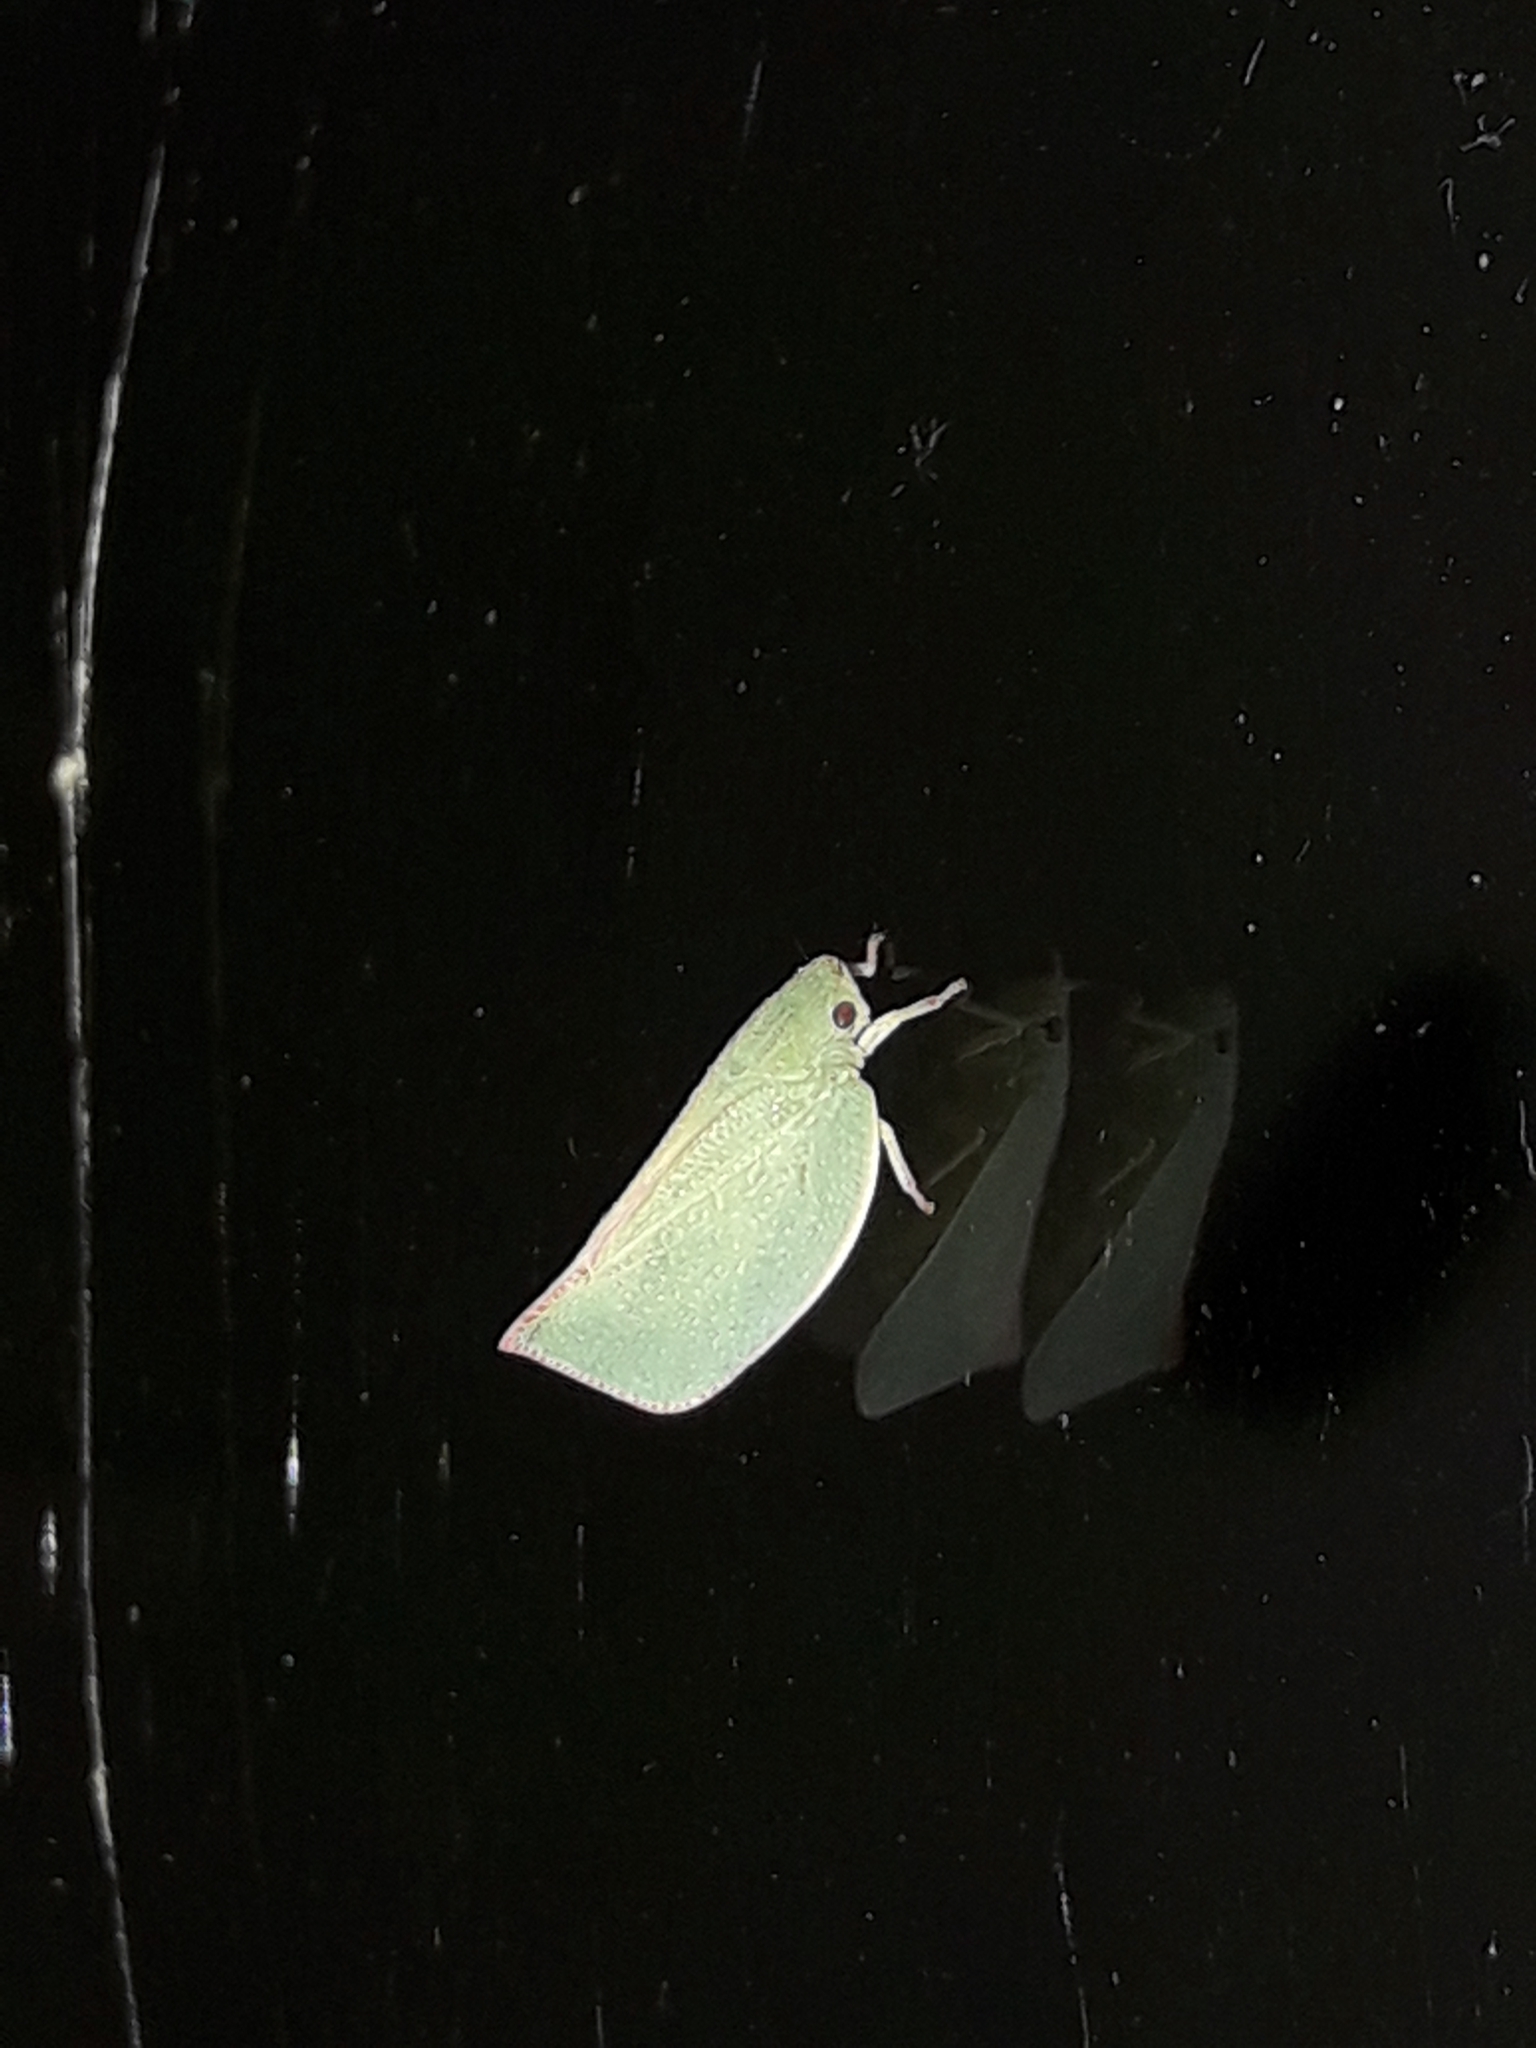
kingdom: Animalia
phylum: Arthropoda
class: Insecta
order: Hemiptera
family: Flatidae
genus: Siphanta
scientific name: Siphanta acuta
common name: Torpedo bug
